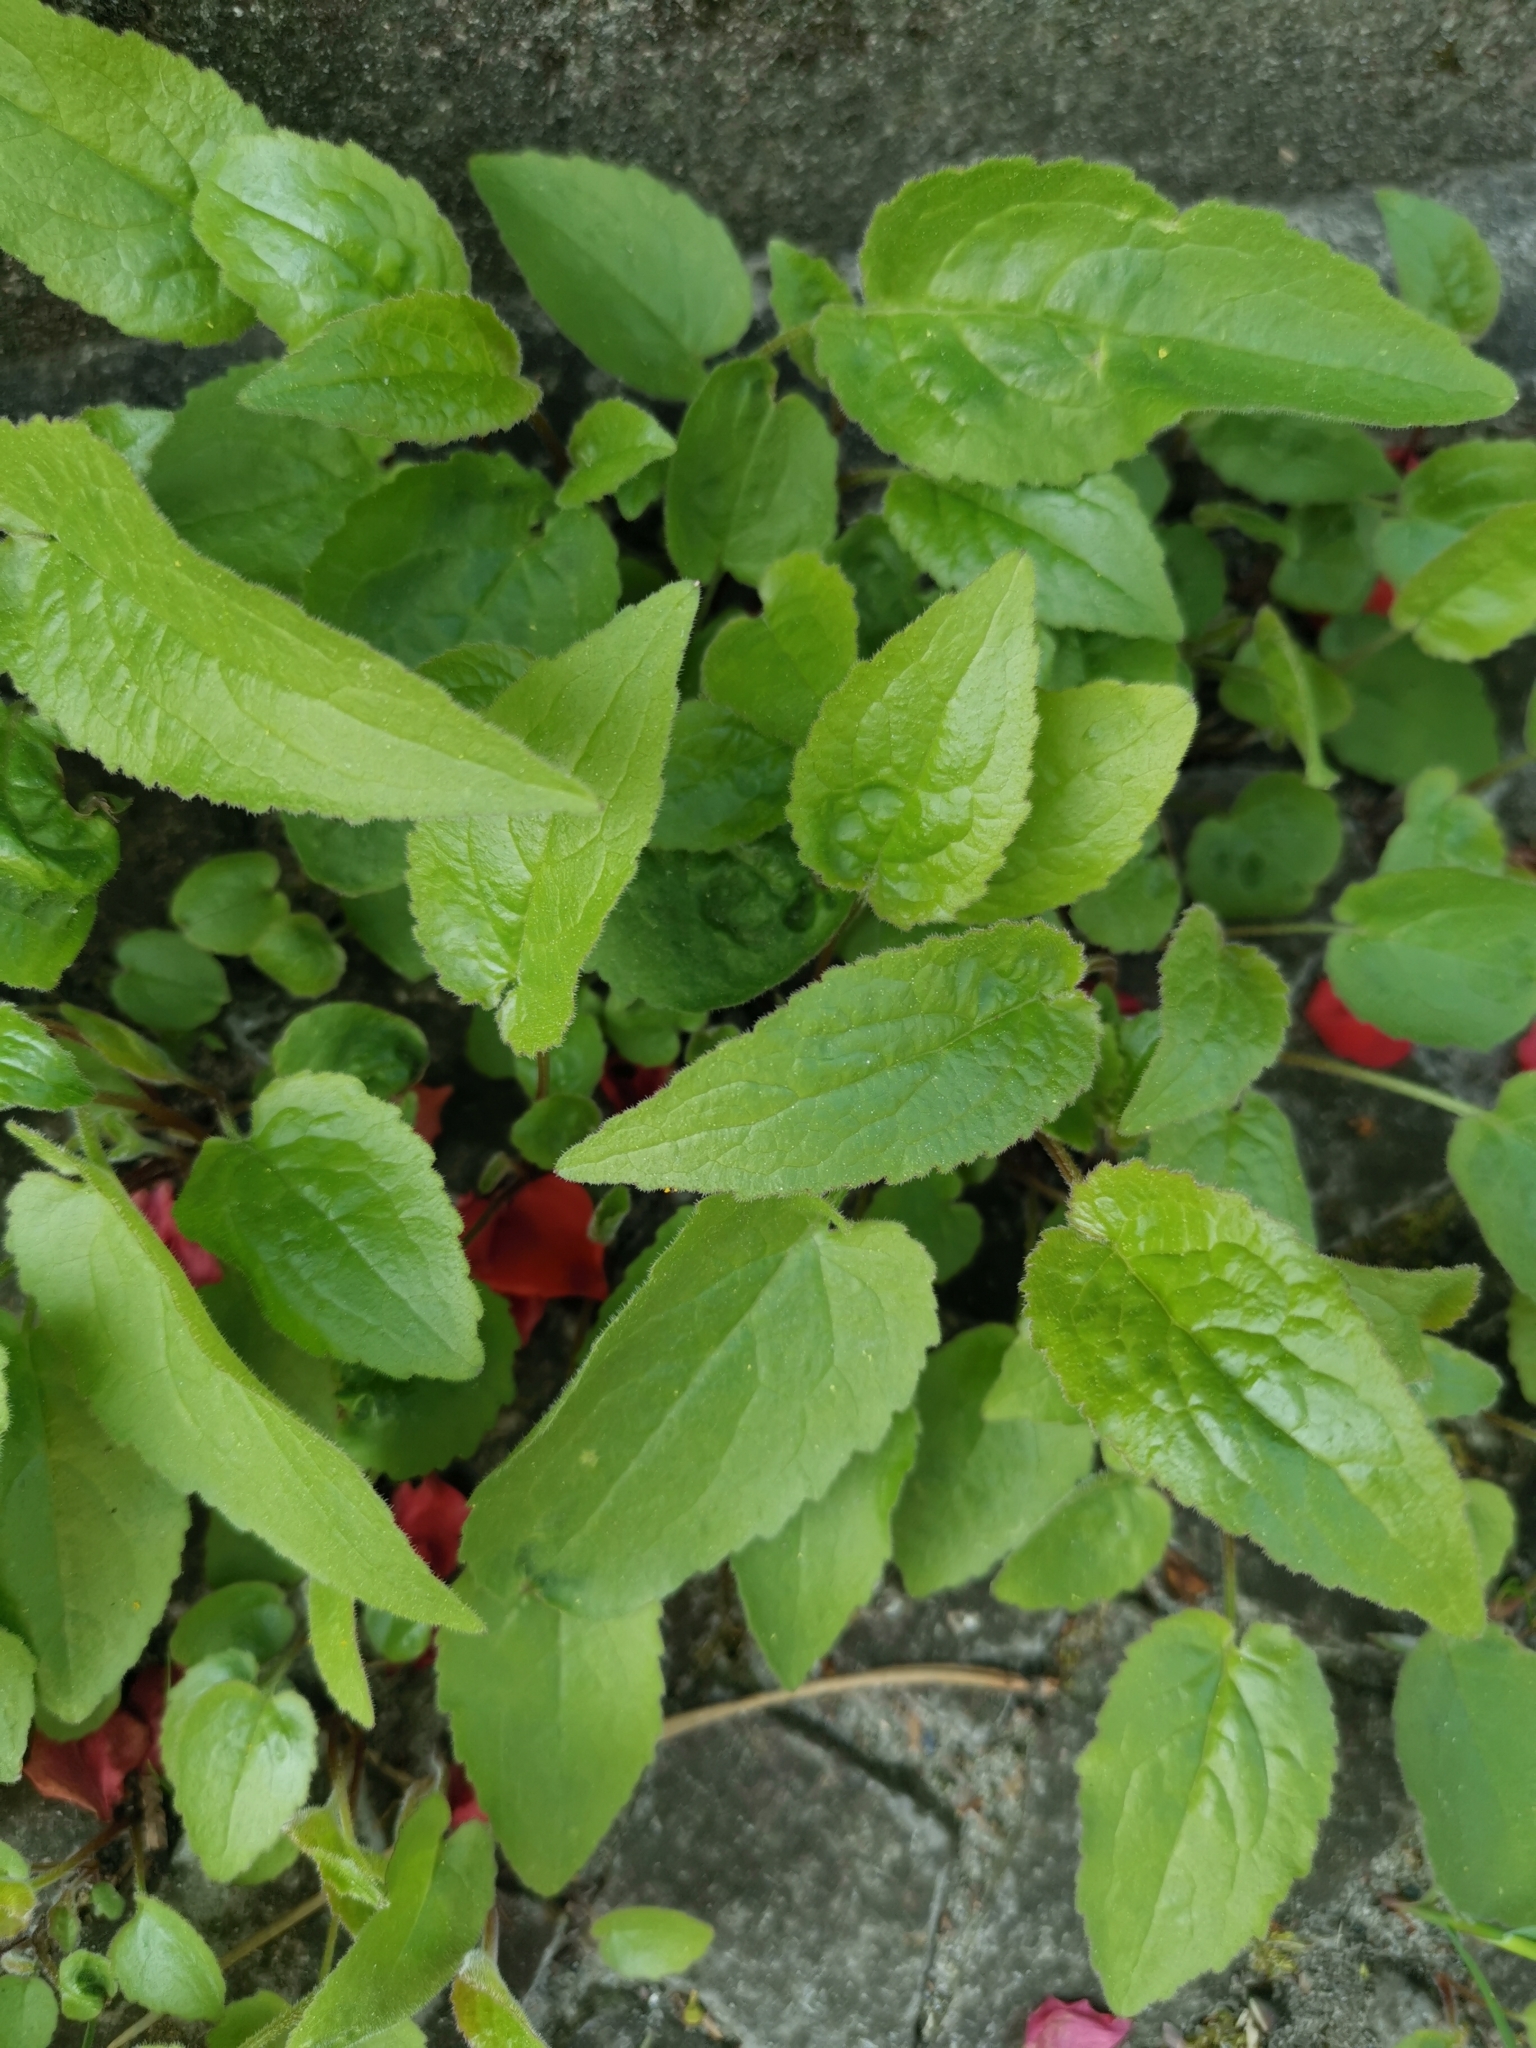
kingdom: Plantae
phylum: Tracheophyta
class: Magnoliopsida
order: Asterales
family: Campanulaceae
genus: Campanula
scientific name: Campanula rapunculoides
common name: Creeping bellflower
